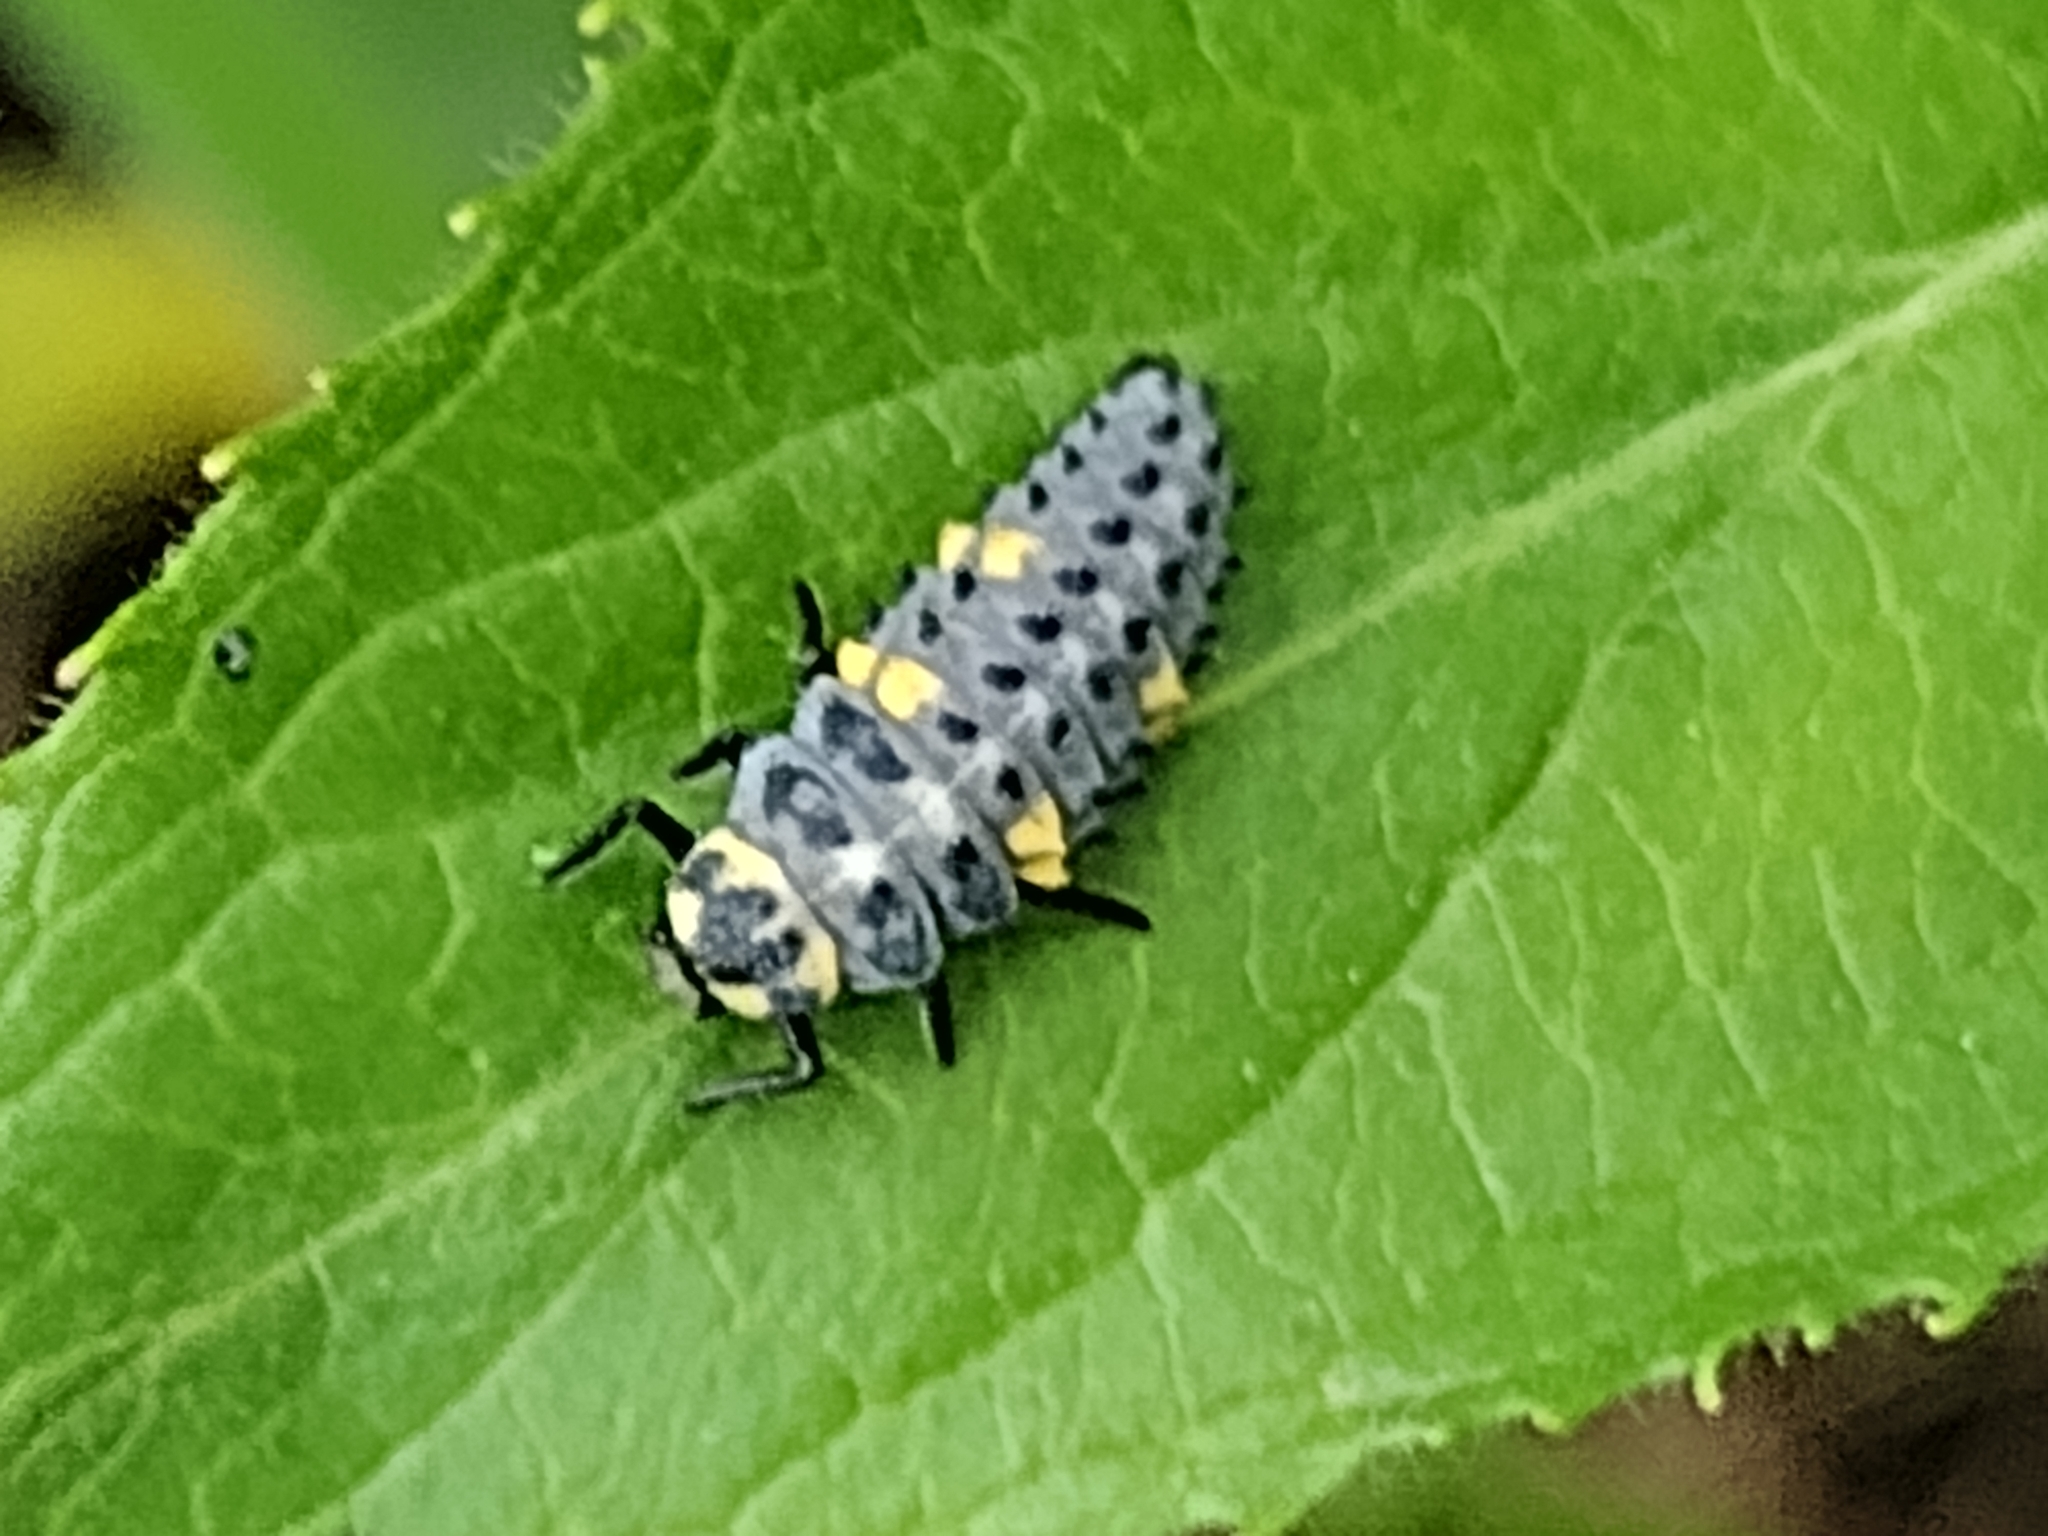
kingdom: Animalia
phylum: Arthropoda
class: Insecta
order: Coleoptera
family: Coccinellidae
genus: Coccinella
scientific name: Coccinella septempunctata
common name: Sevenspotted lady beetle
